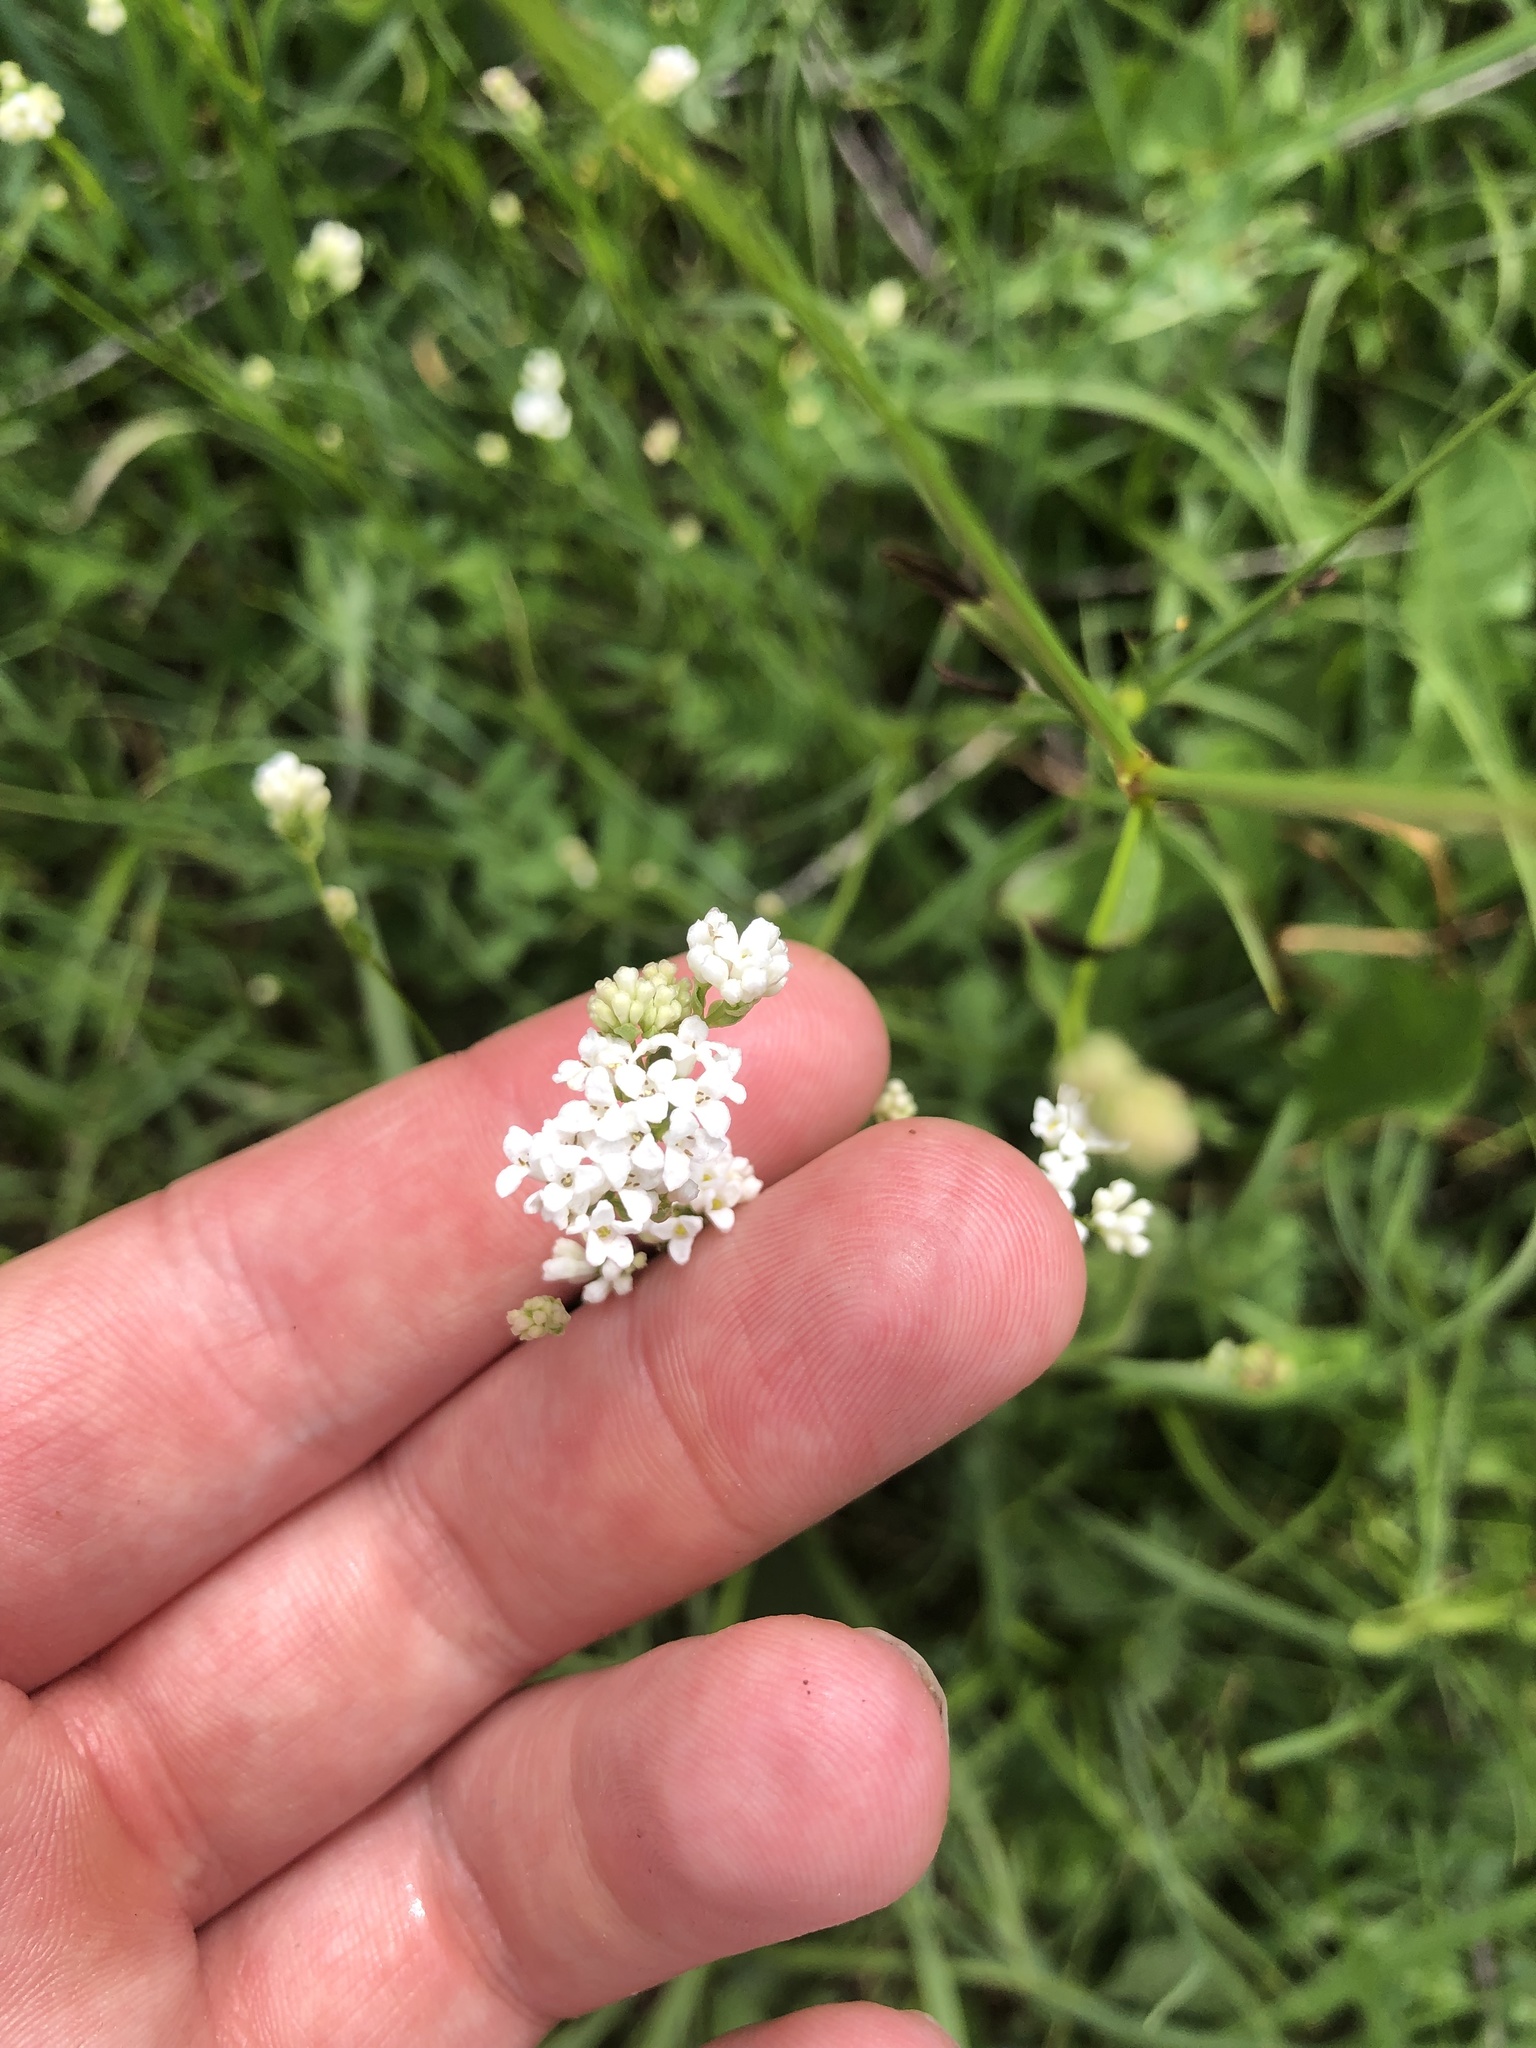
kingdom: Plantae
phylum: Tracheophyta
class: Magnoliopsida
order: Gentianales
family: Rubiaceae
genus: Asperula
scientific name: Asperula tinctoria
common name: Dyer's woodruff
